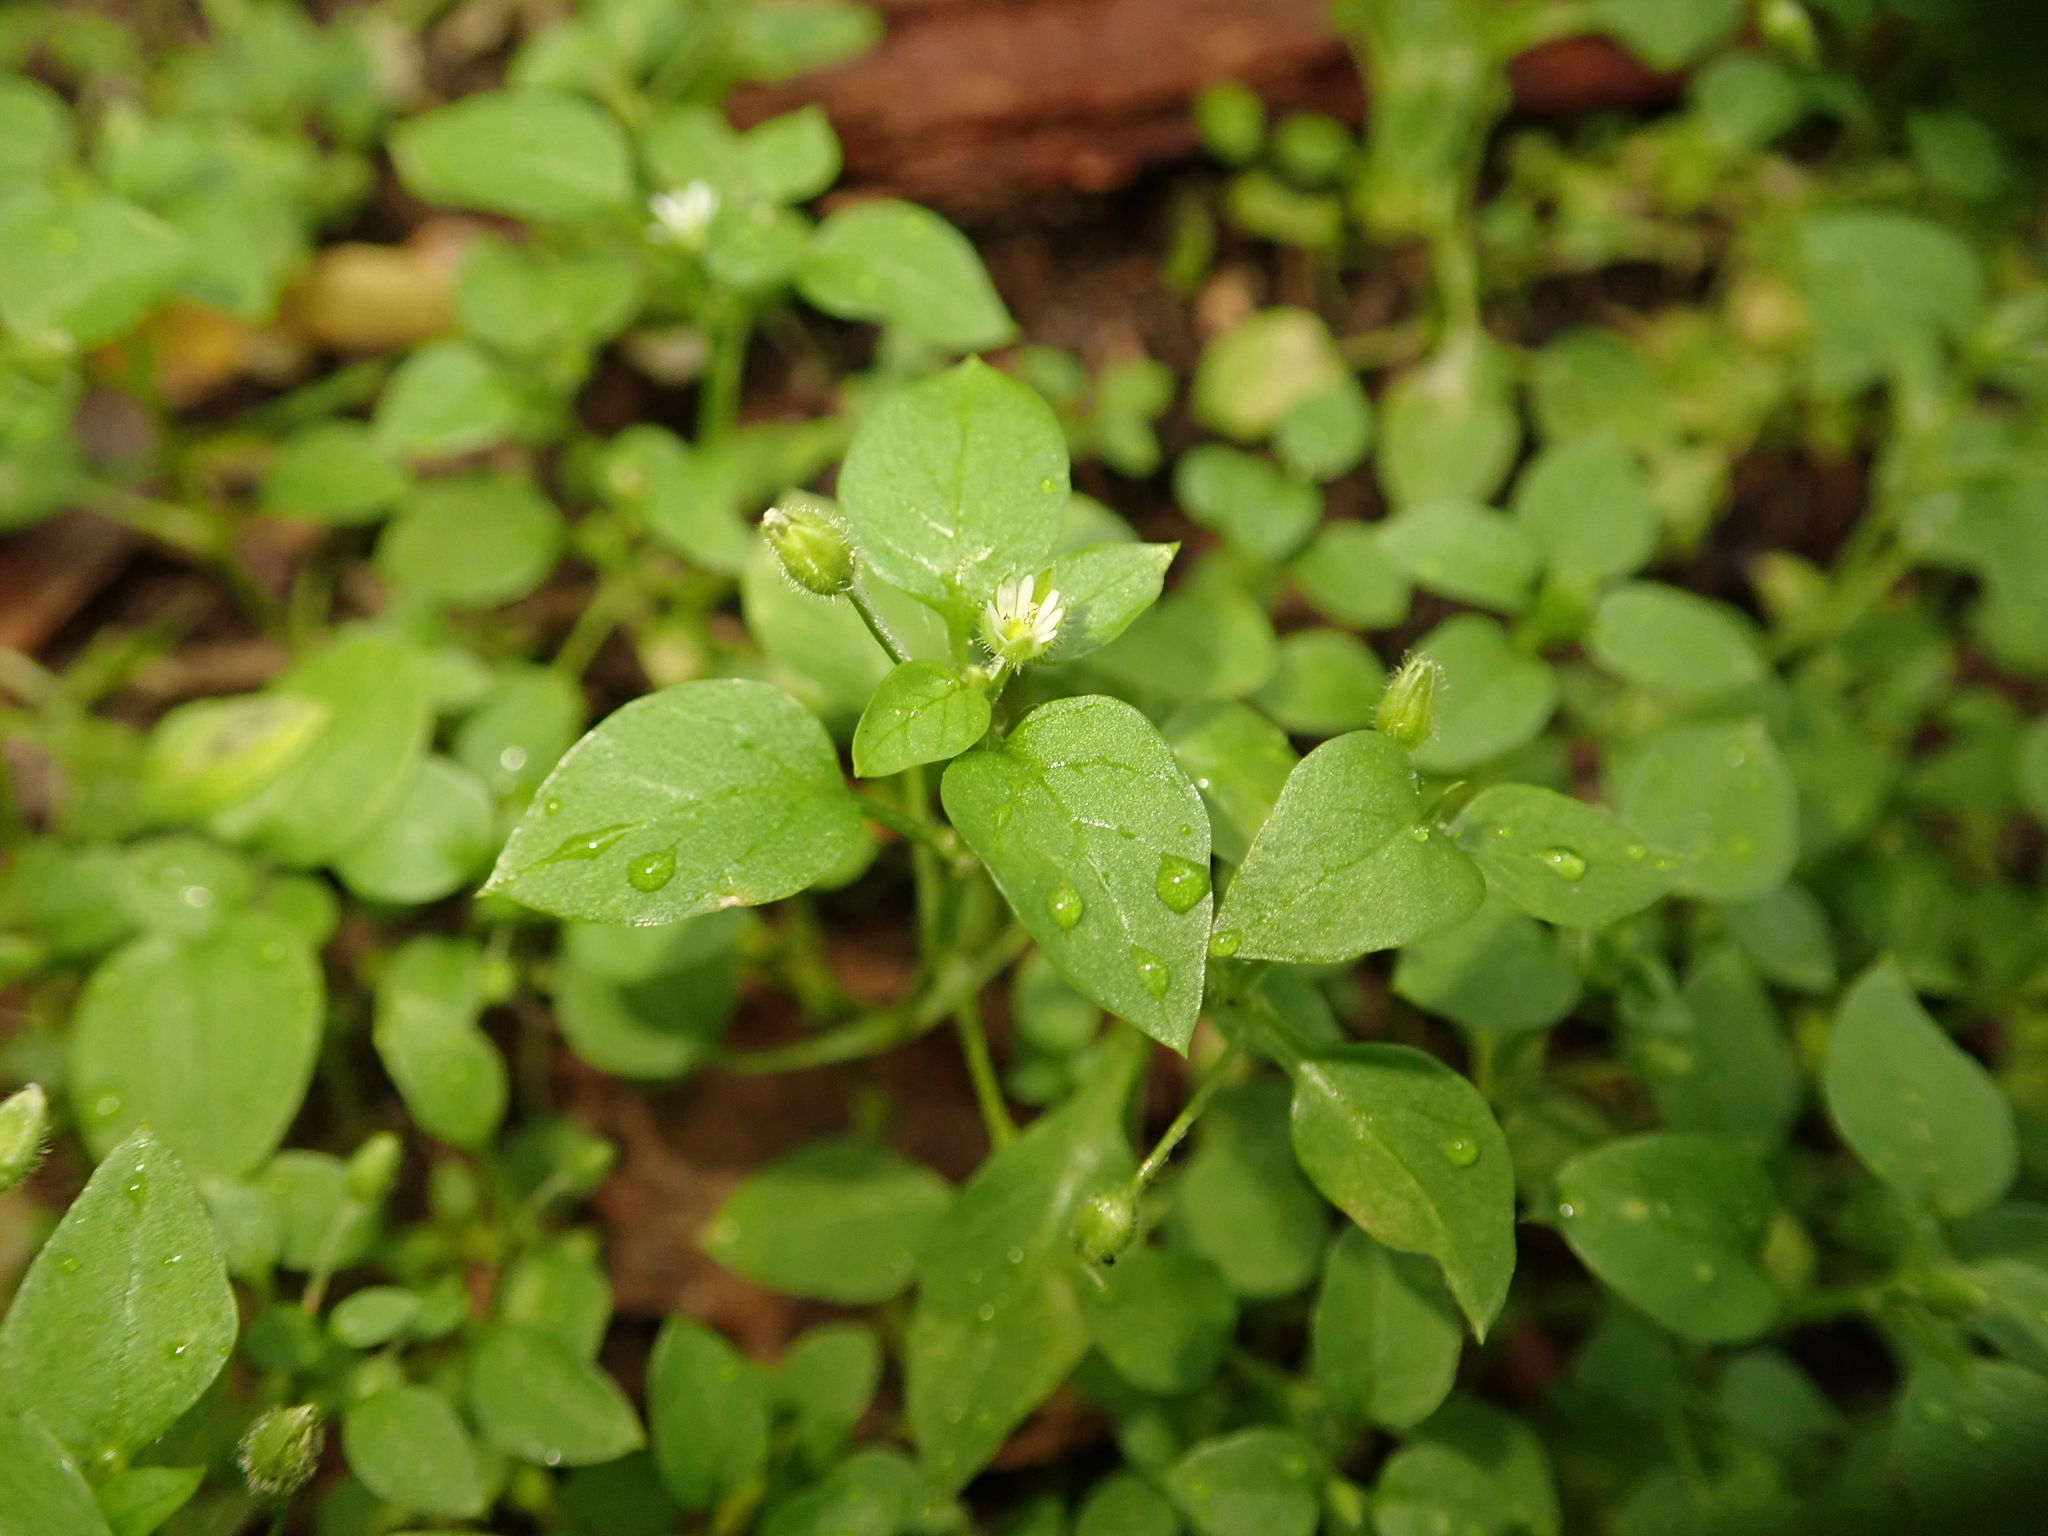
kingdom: Plantae
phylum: Tracheophyta
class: Magnoliopsida
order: Caryophyllales
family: Caryophyllaceae
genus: Stellaria
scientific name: Stellaria media
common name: Common chickweed
